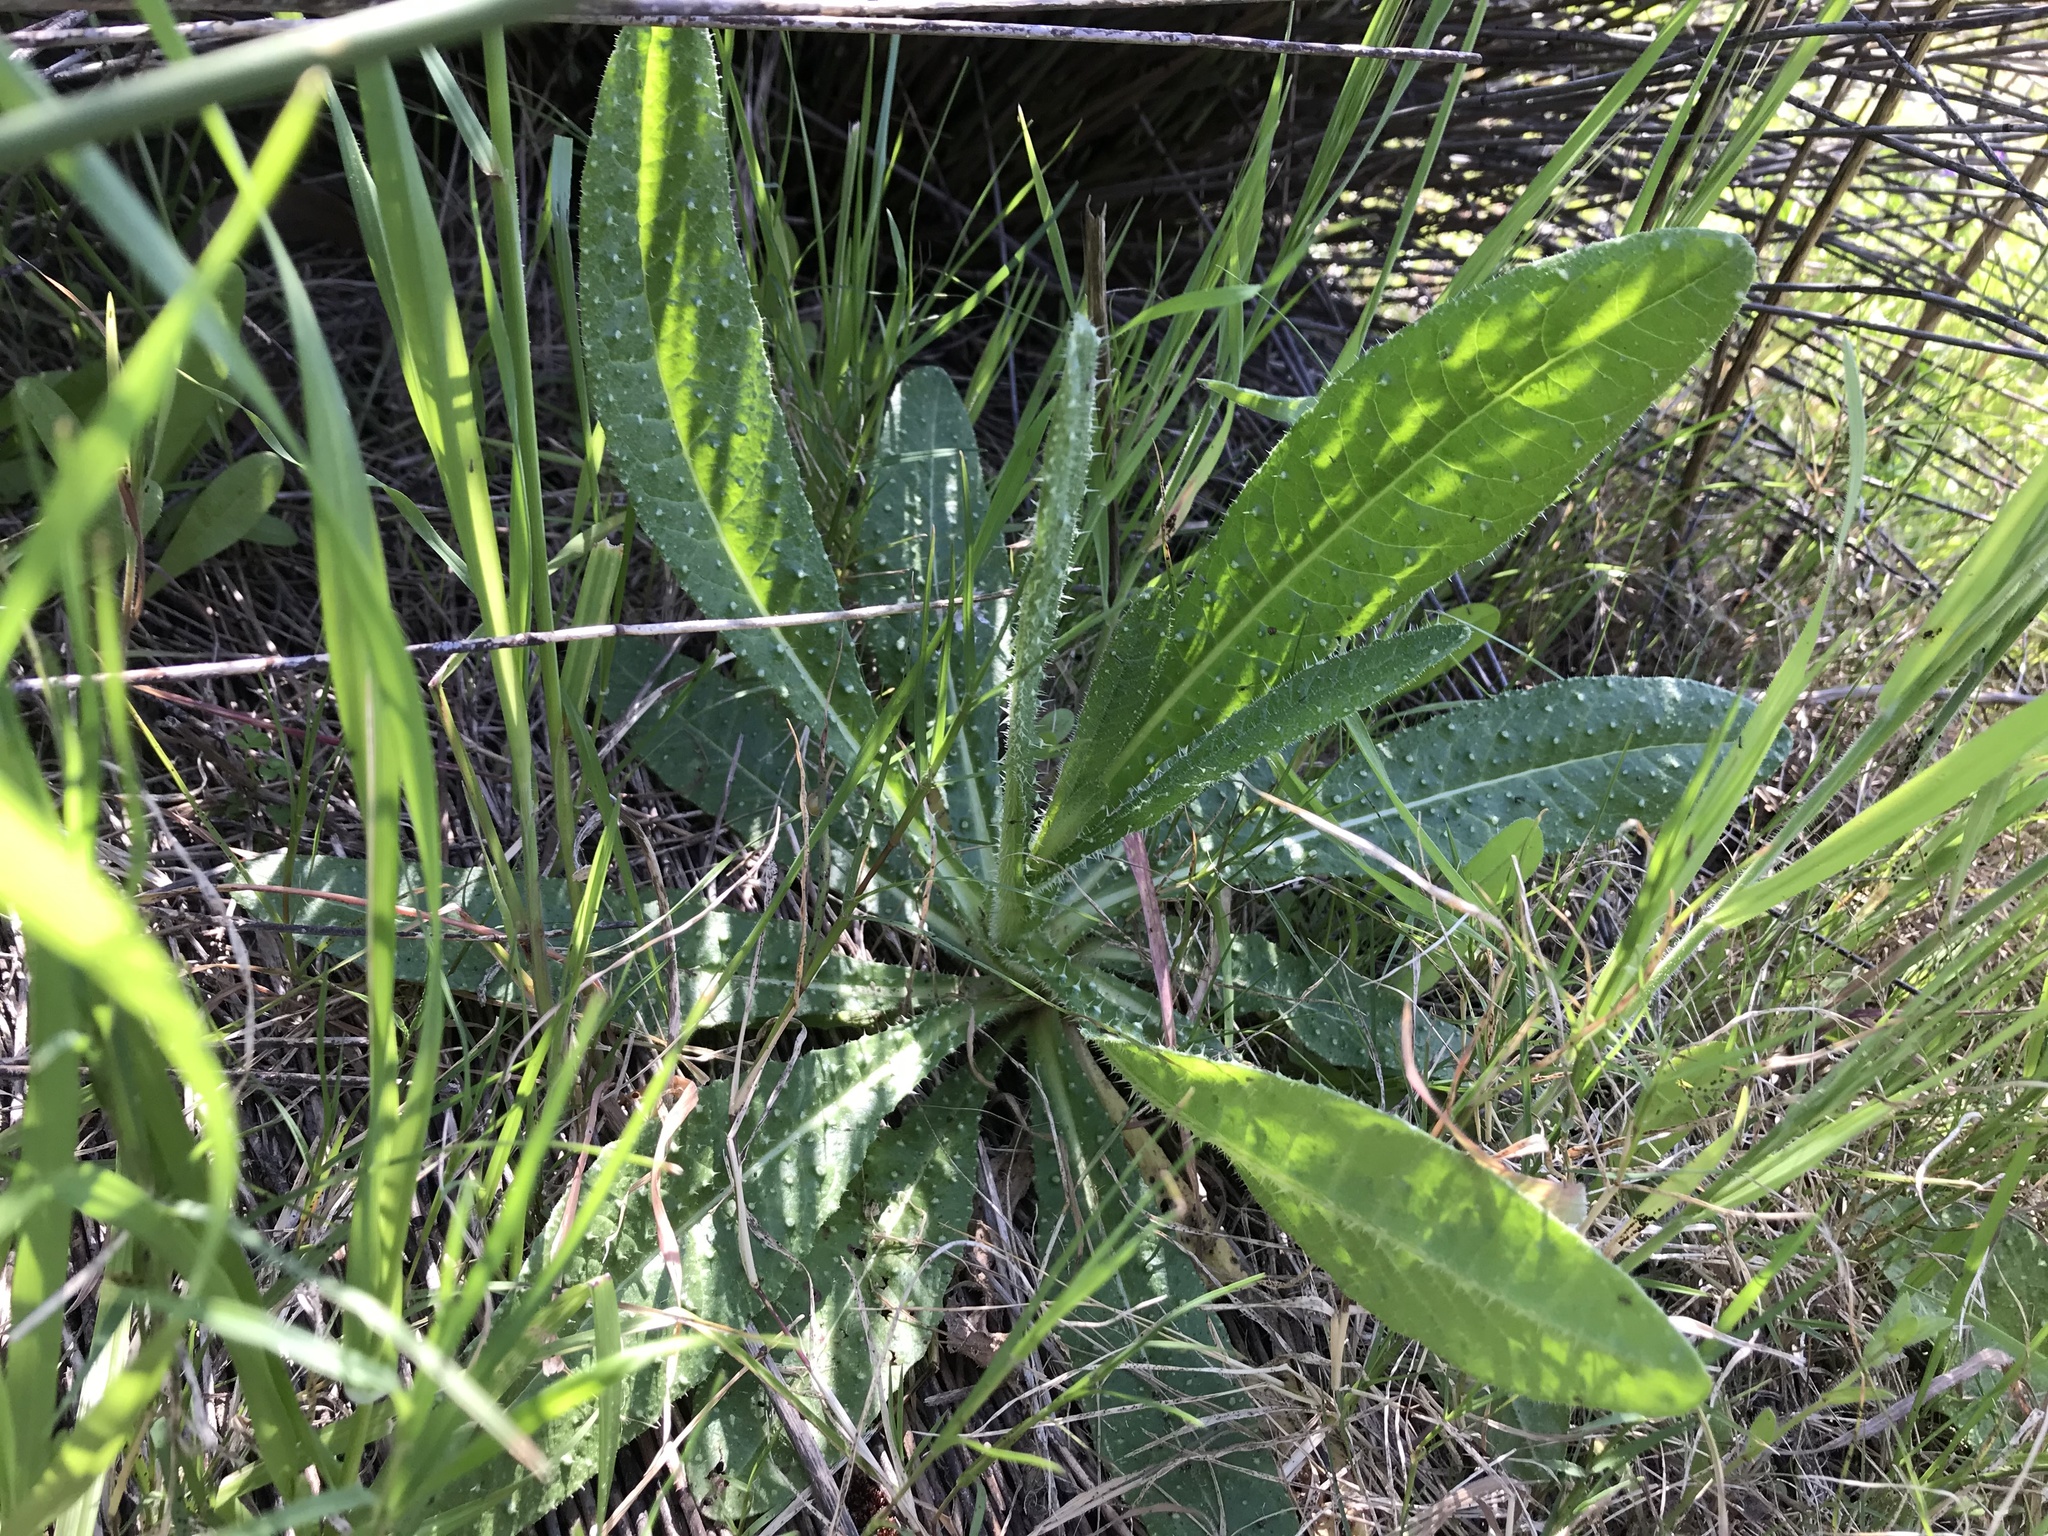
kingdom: Plantae
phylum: Tracheophyta
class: Magnoliopsida
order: Asterales
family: Asteraceae
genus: Helminthotheca
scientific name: Helminthotheca echioides
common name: Ox-tongue
